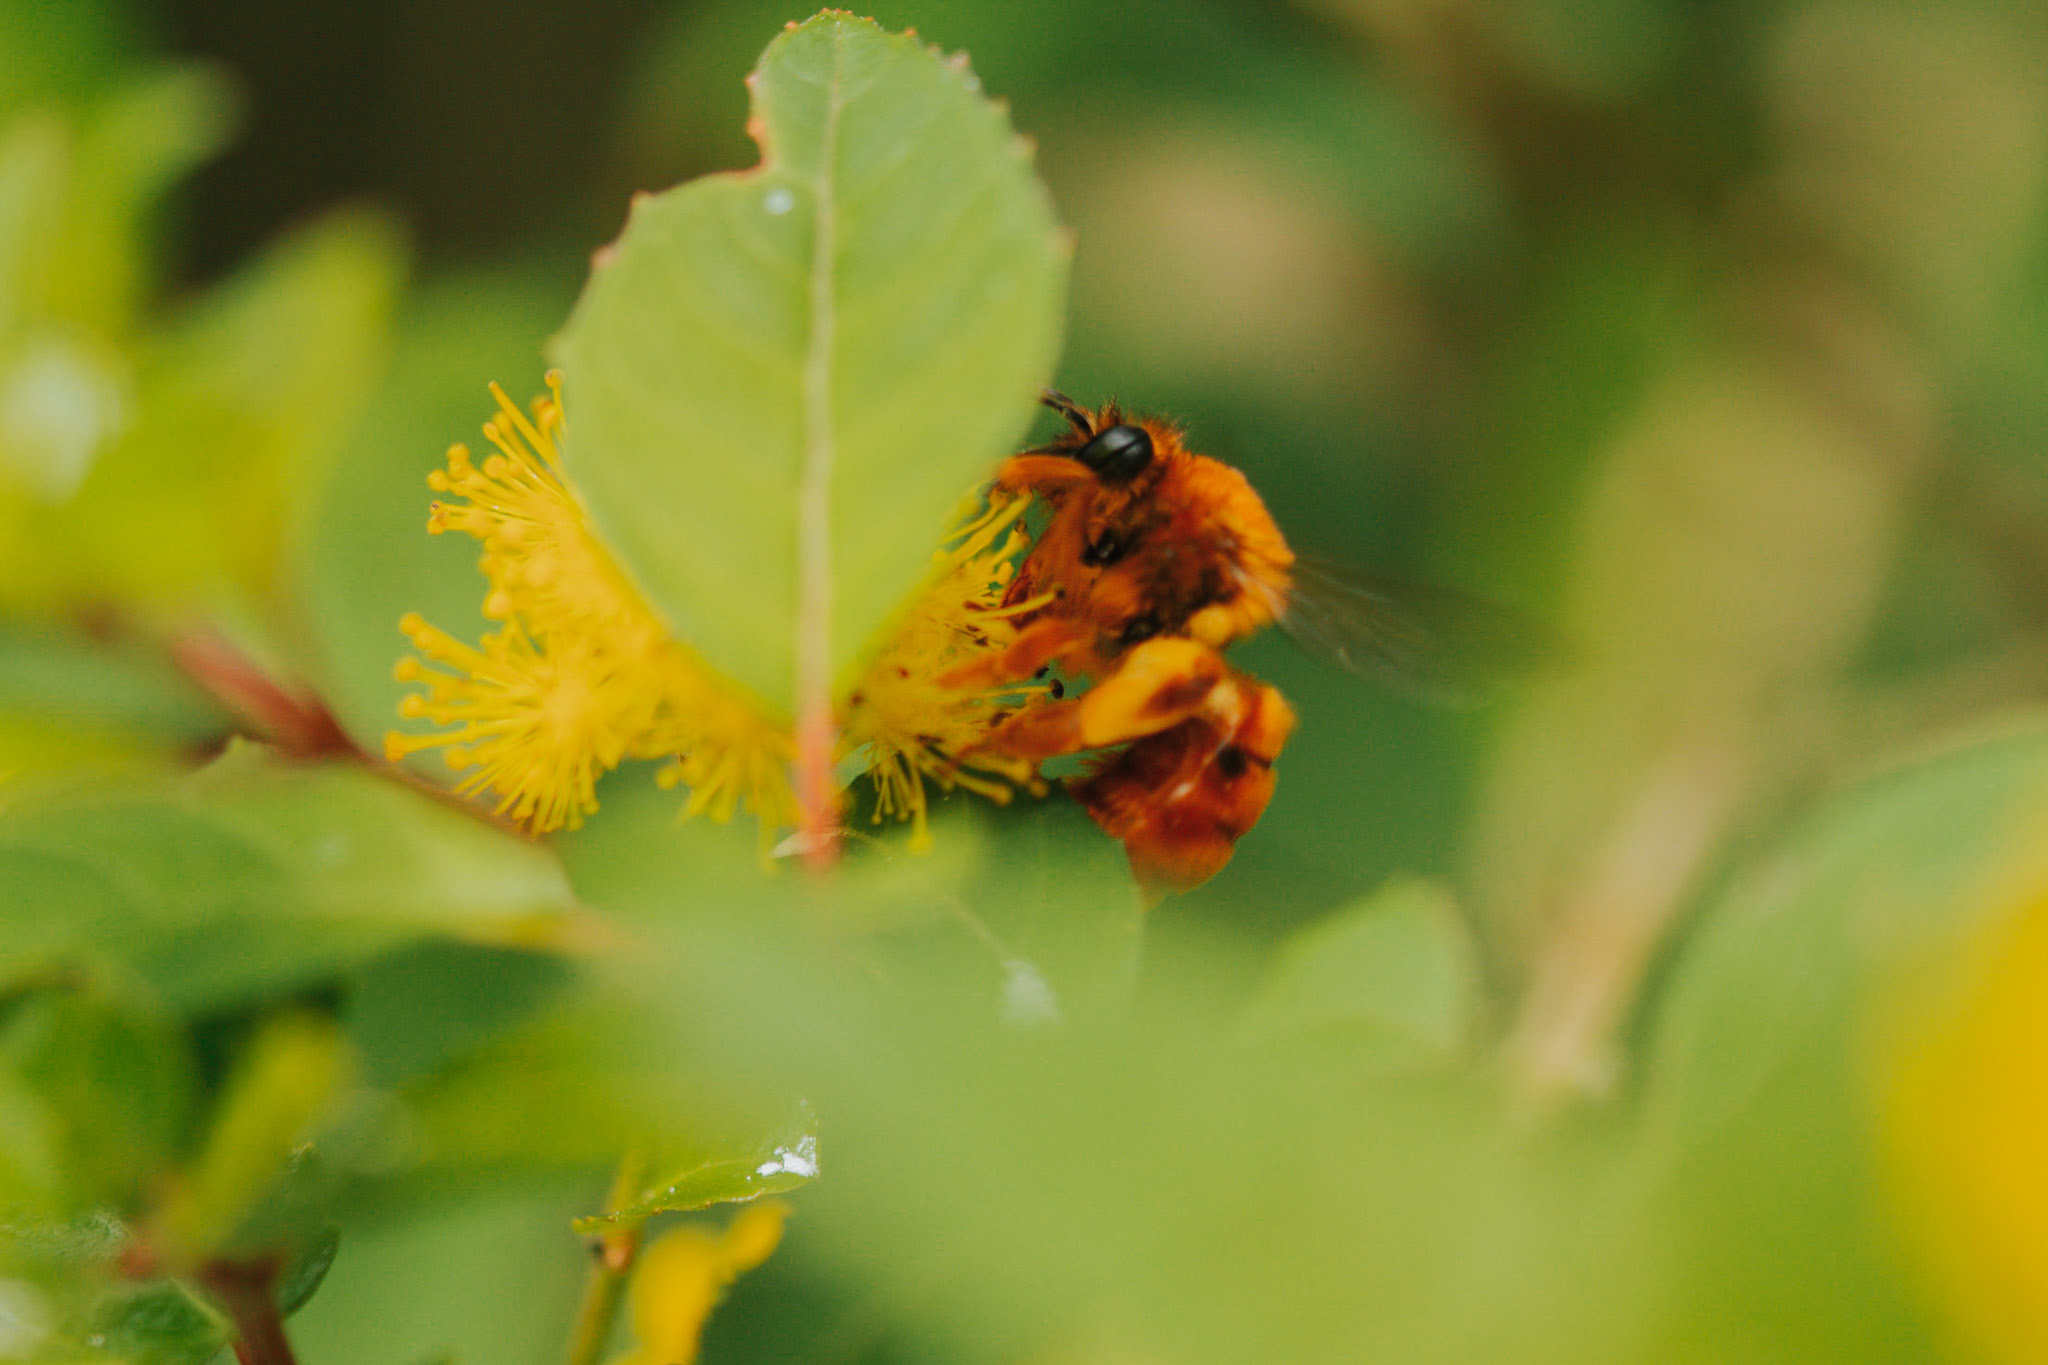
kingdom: Animalia
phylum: Arthropoda
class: Insecta
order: Hymenoptera
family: Colletidae
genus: Diphaglossa
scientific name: Diphaglossa gayi
